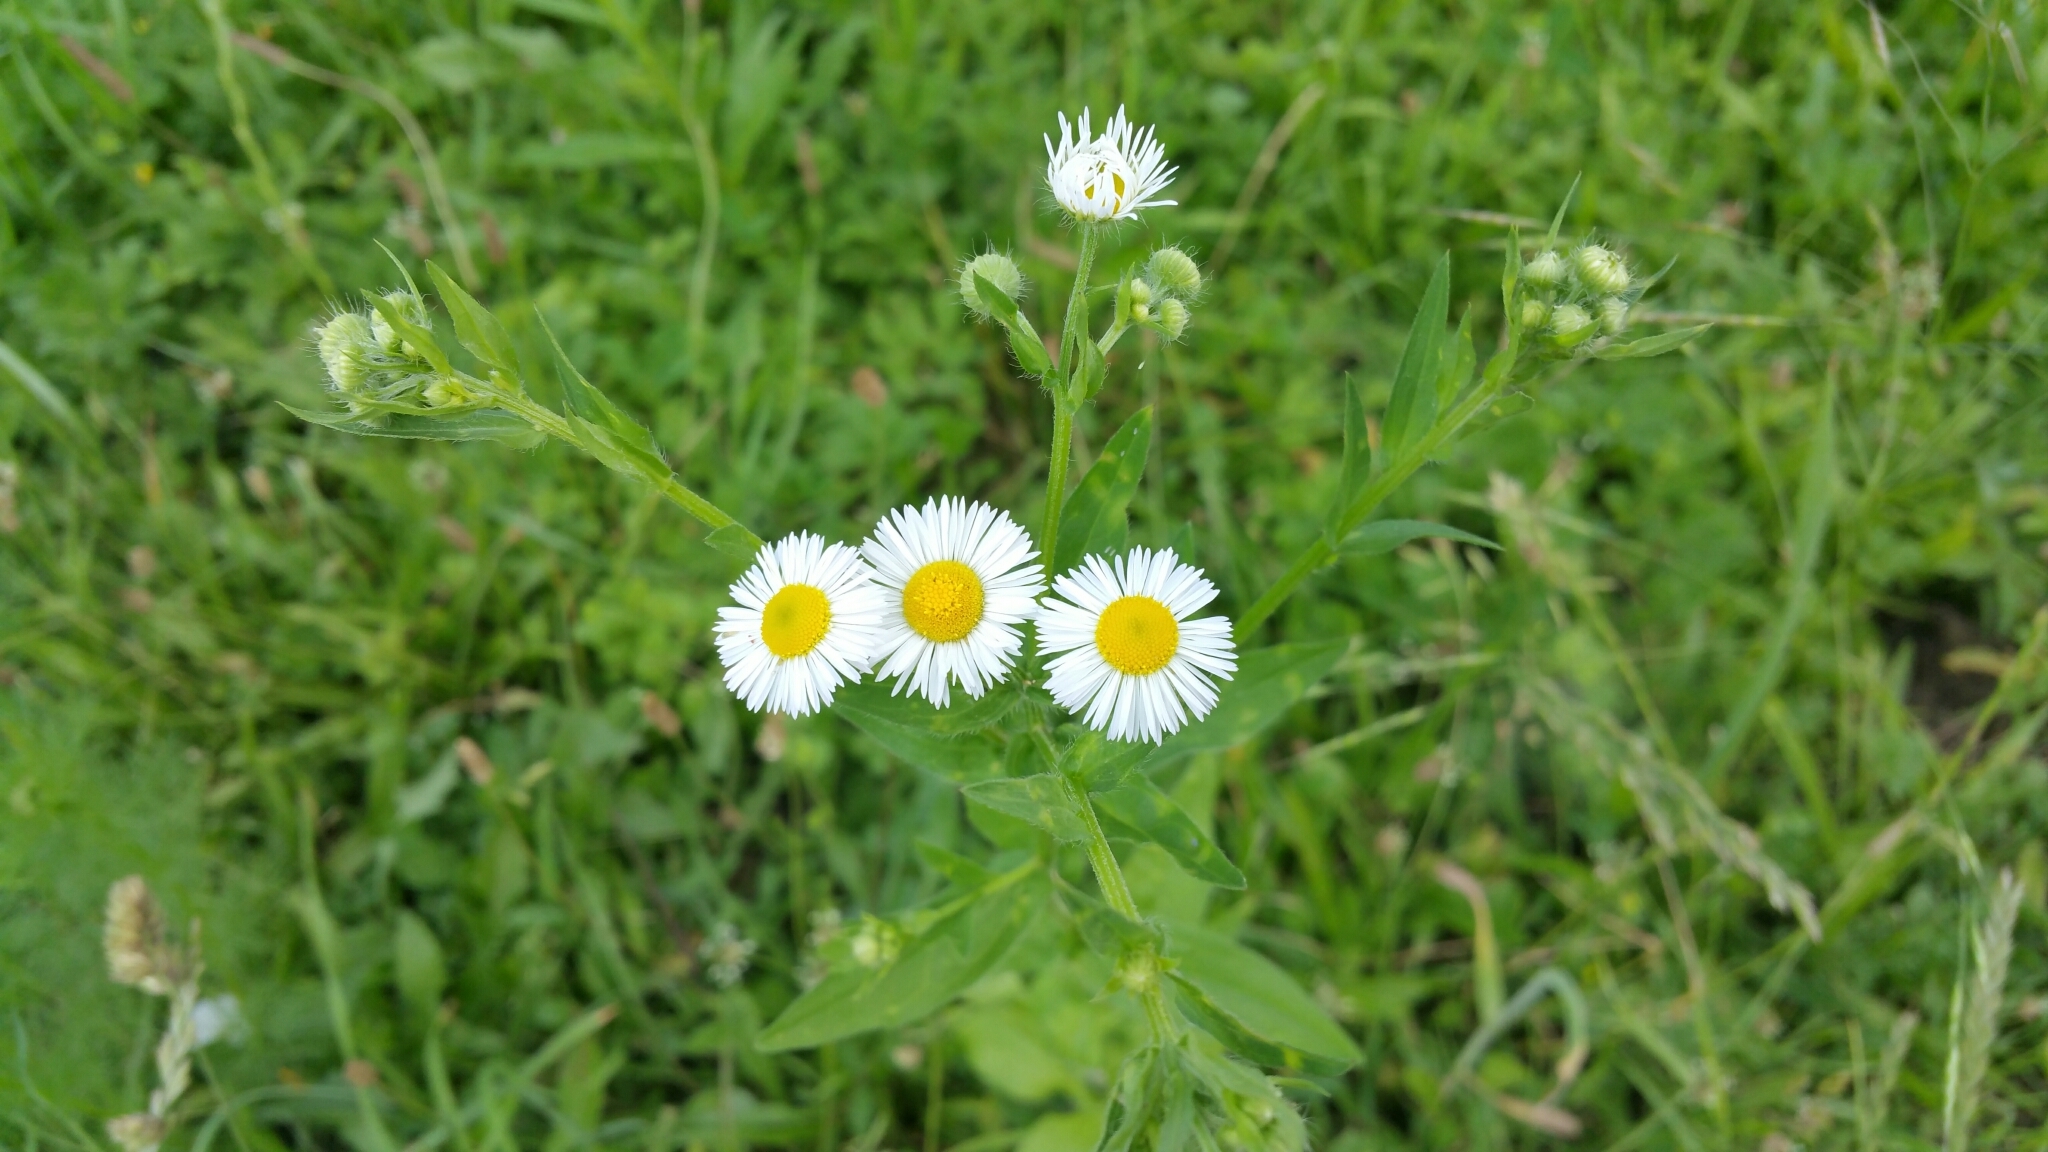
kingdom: Plantae
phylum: Tracheophyta
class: Magnoliopsida
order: Asterales
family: Asteraceae
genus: Erigeron
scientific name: Erigeron annuus
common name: Tall fleabane
